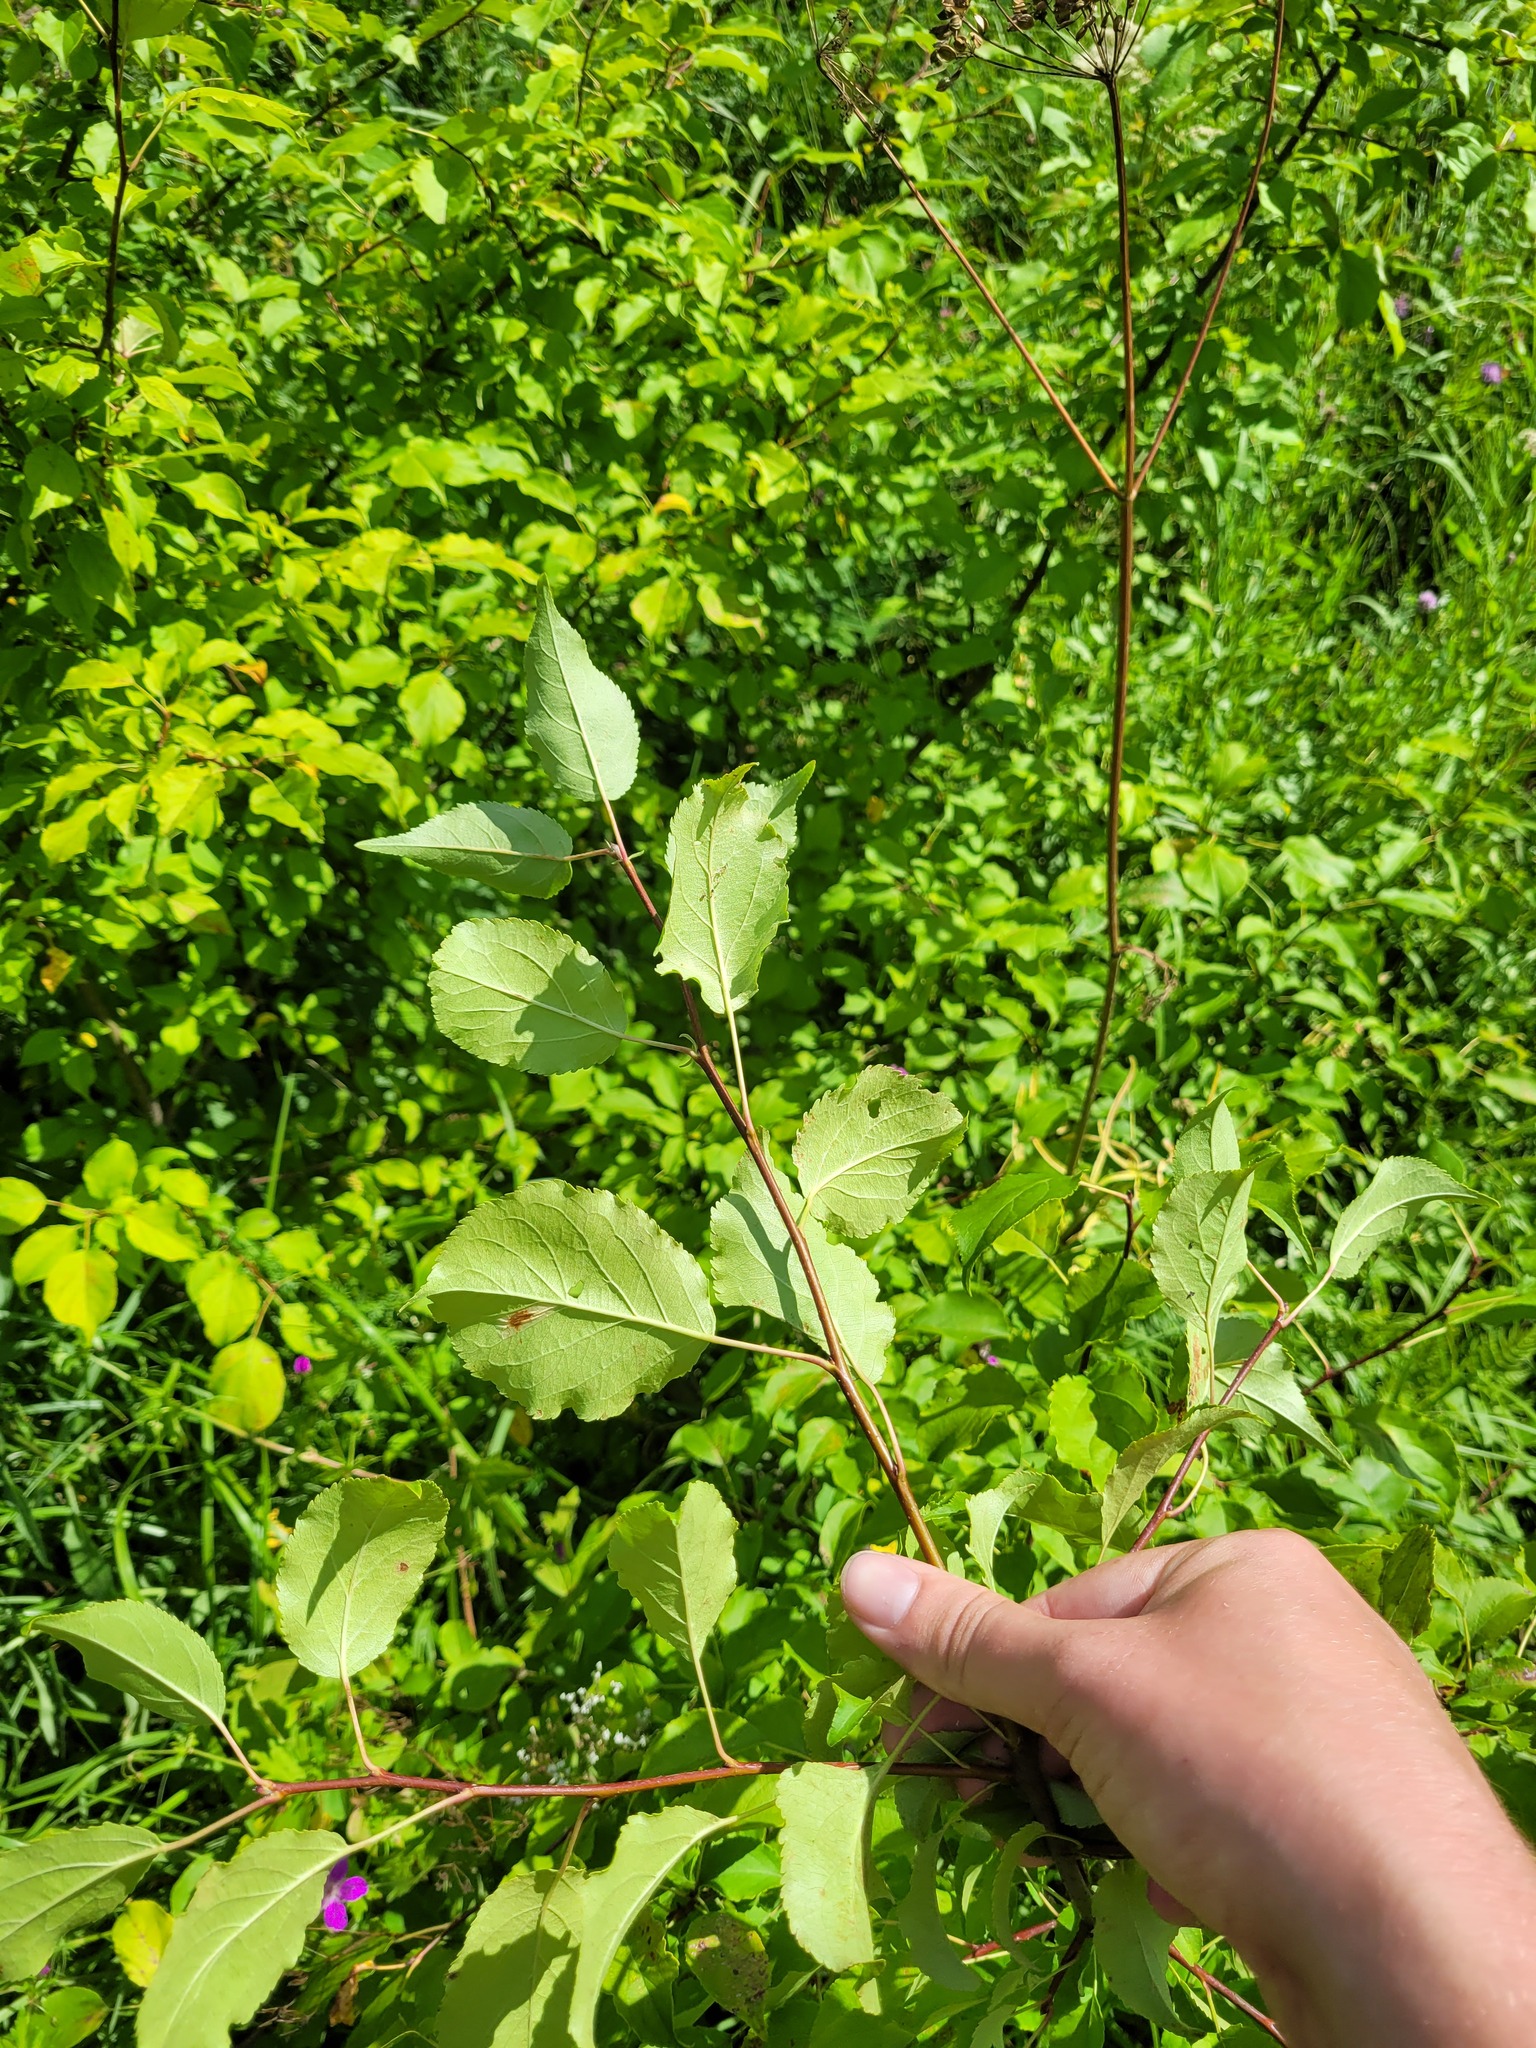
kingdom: Plantae
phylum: Tracheophyta
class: Magnoliopsida
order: Rosales
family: Rosaceae
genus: Malus
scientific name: Malus domestica
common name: Apple
